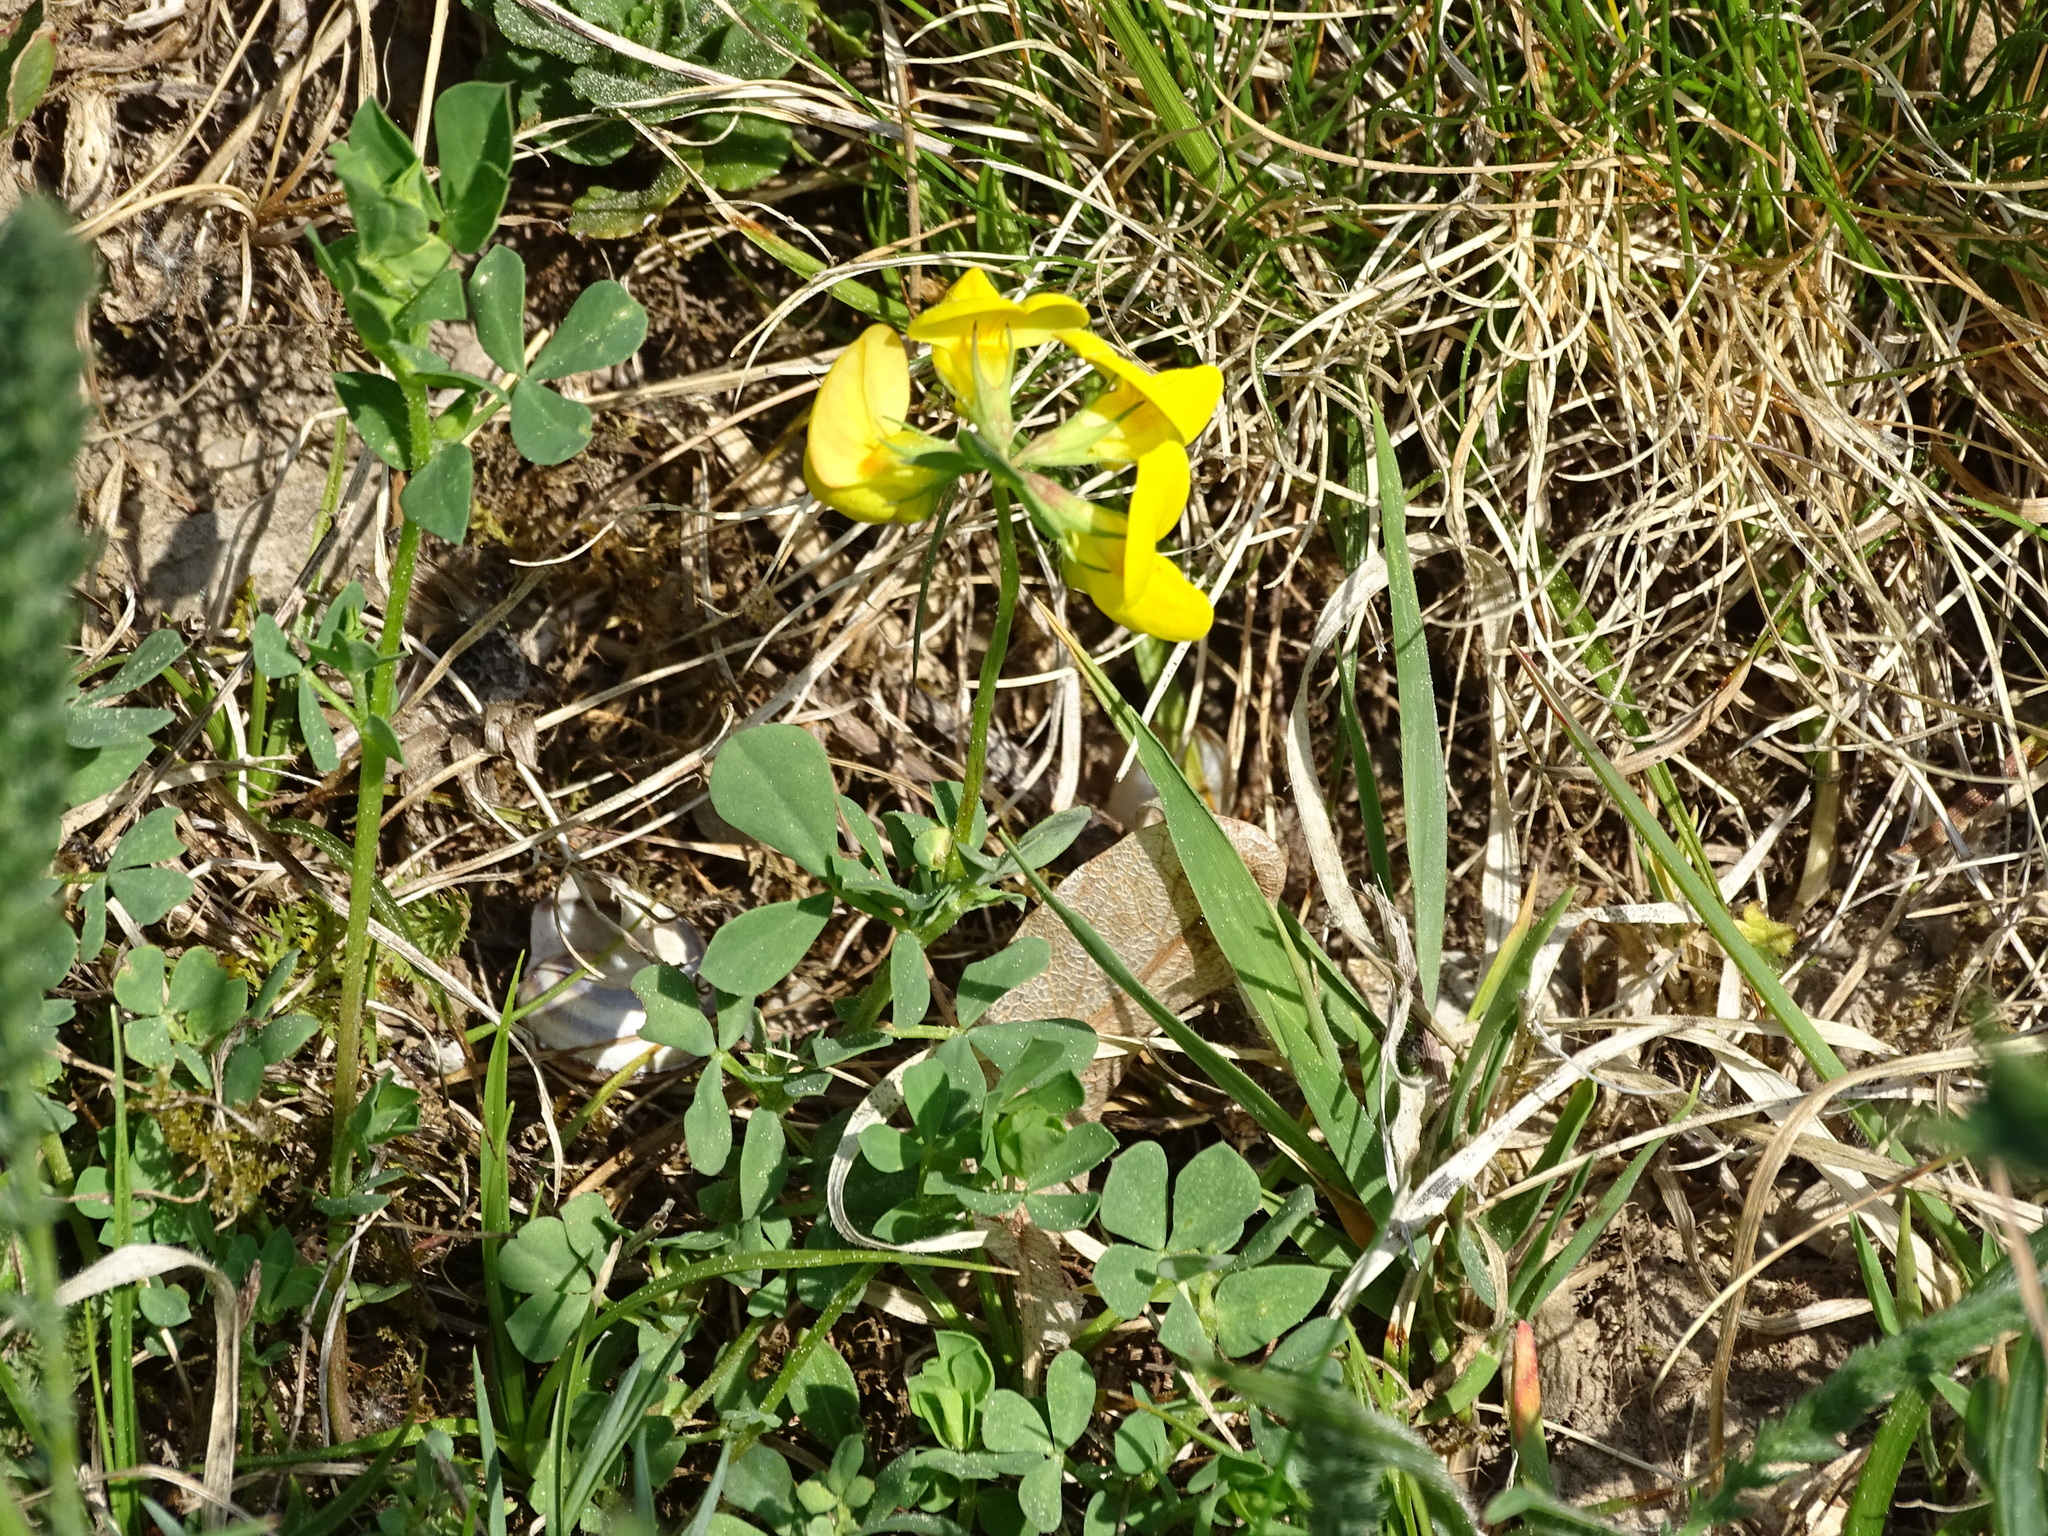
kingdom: Plantae
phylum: Tracheophyta
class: Magnoliopsida
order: Fabales
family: Fabaceae
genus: Lotus
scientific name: Lotus corniculatus
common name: Common bird's-foot-trefoil
